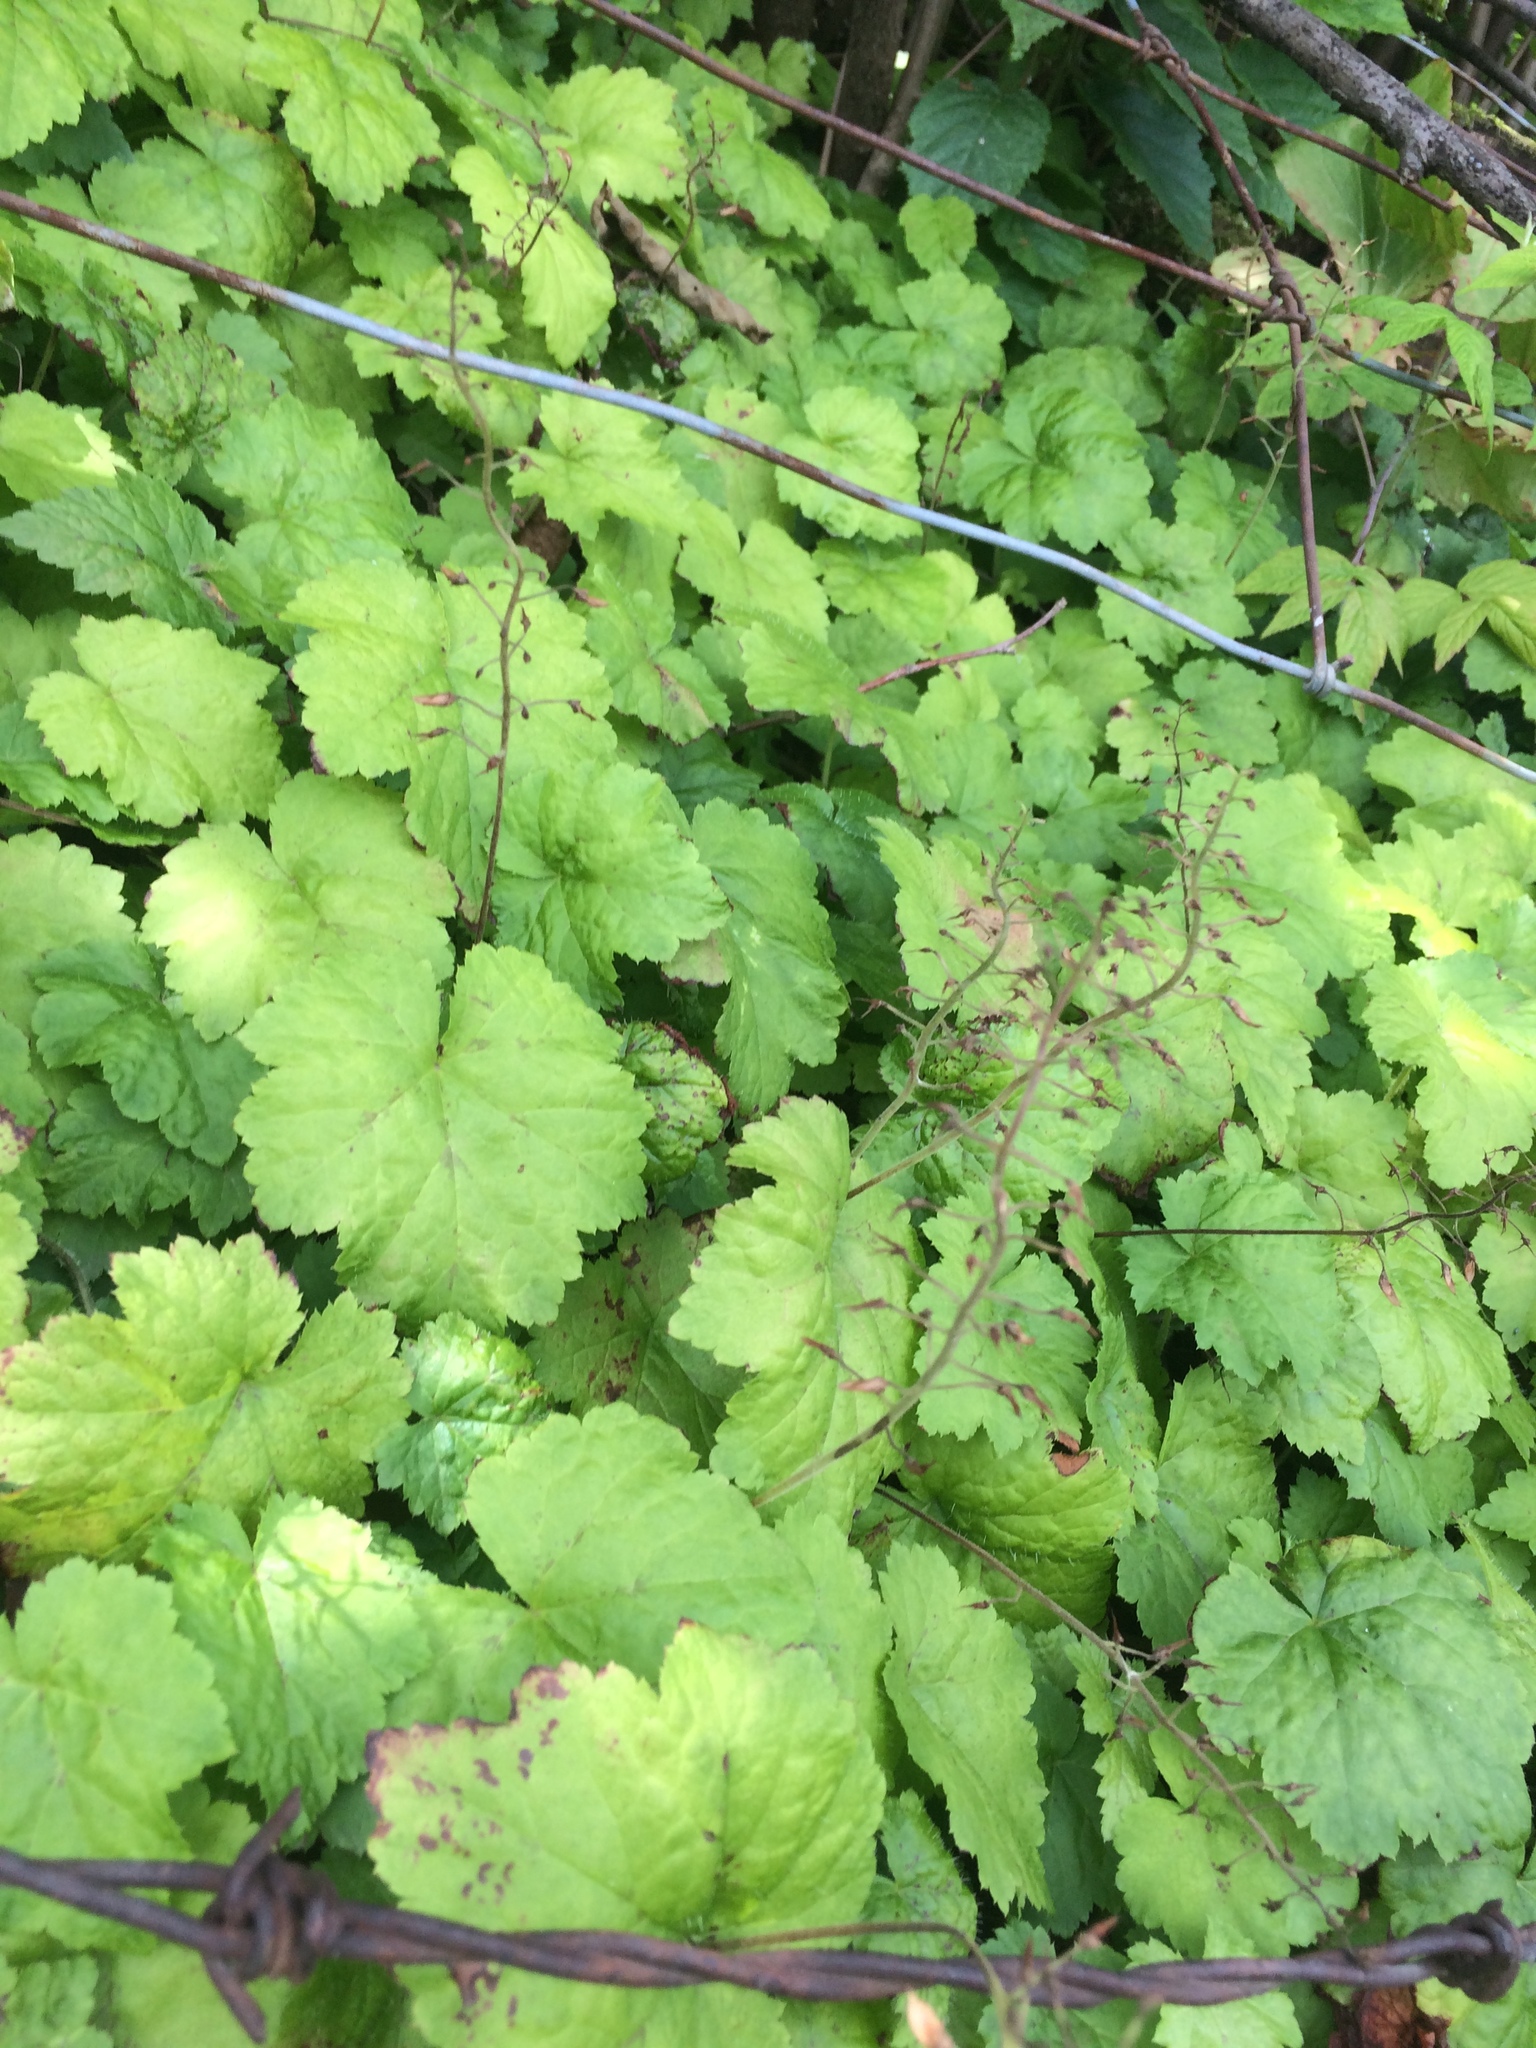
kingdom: Plantae
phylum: Tracheophyta
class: Magnoliopsida
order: Saxifragales
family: Saxifragaceae
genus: Tiarella
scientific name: Tiarella stolonifera
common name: Stoloniferous foamflower
